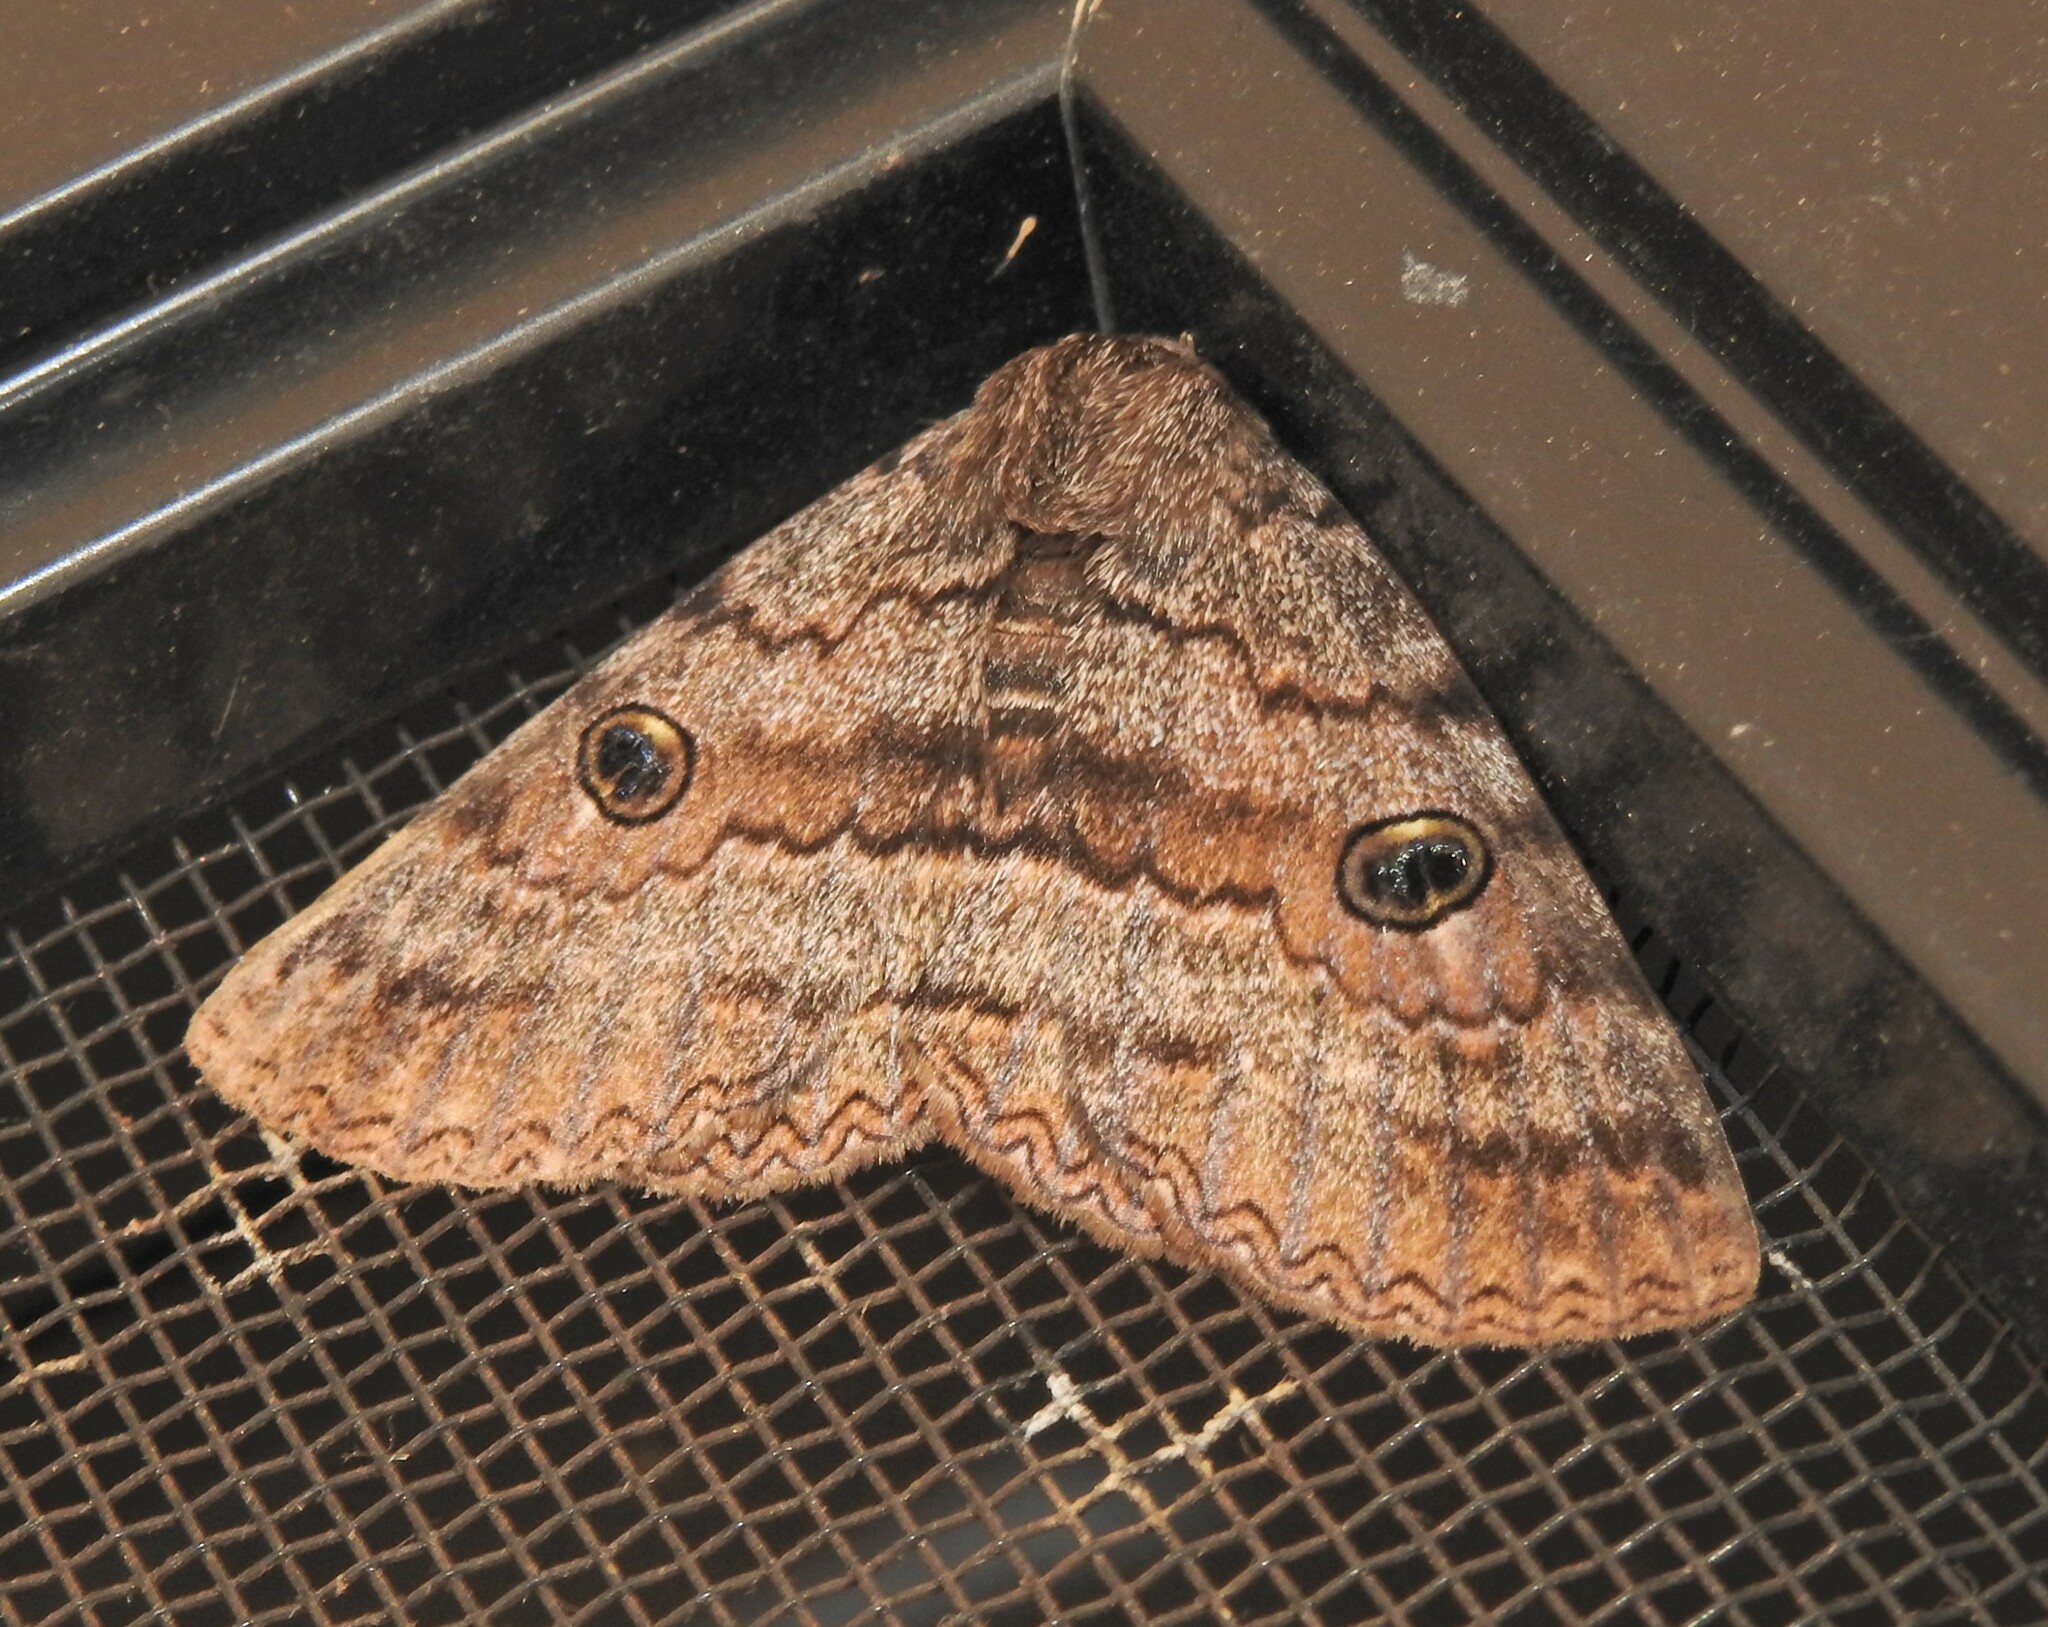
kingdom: Animalia
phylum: Arthropoda
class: Insecta
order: Lepidoptera
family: Erebidae
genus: Donuca
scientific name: Donuca castalia
